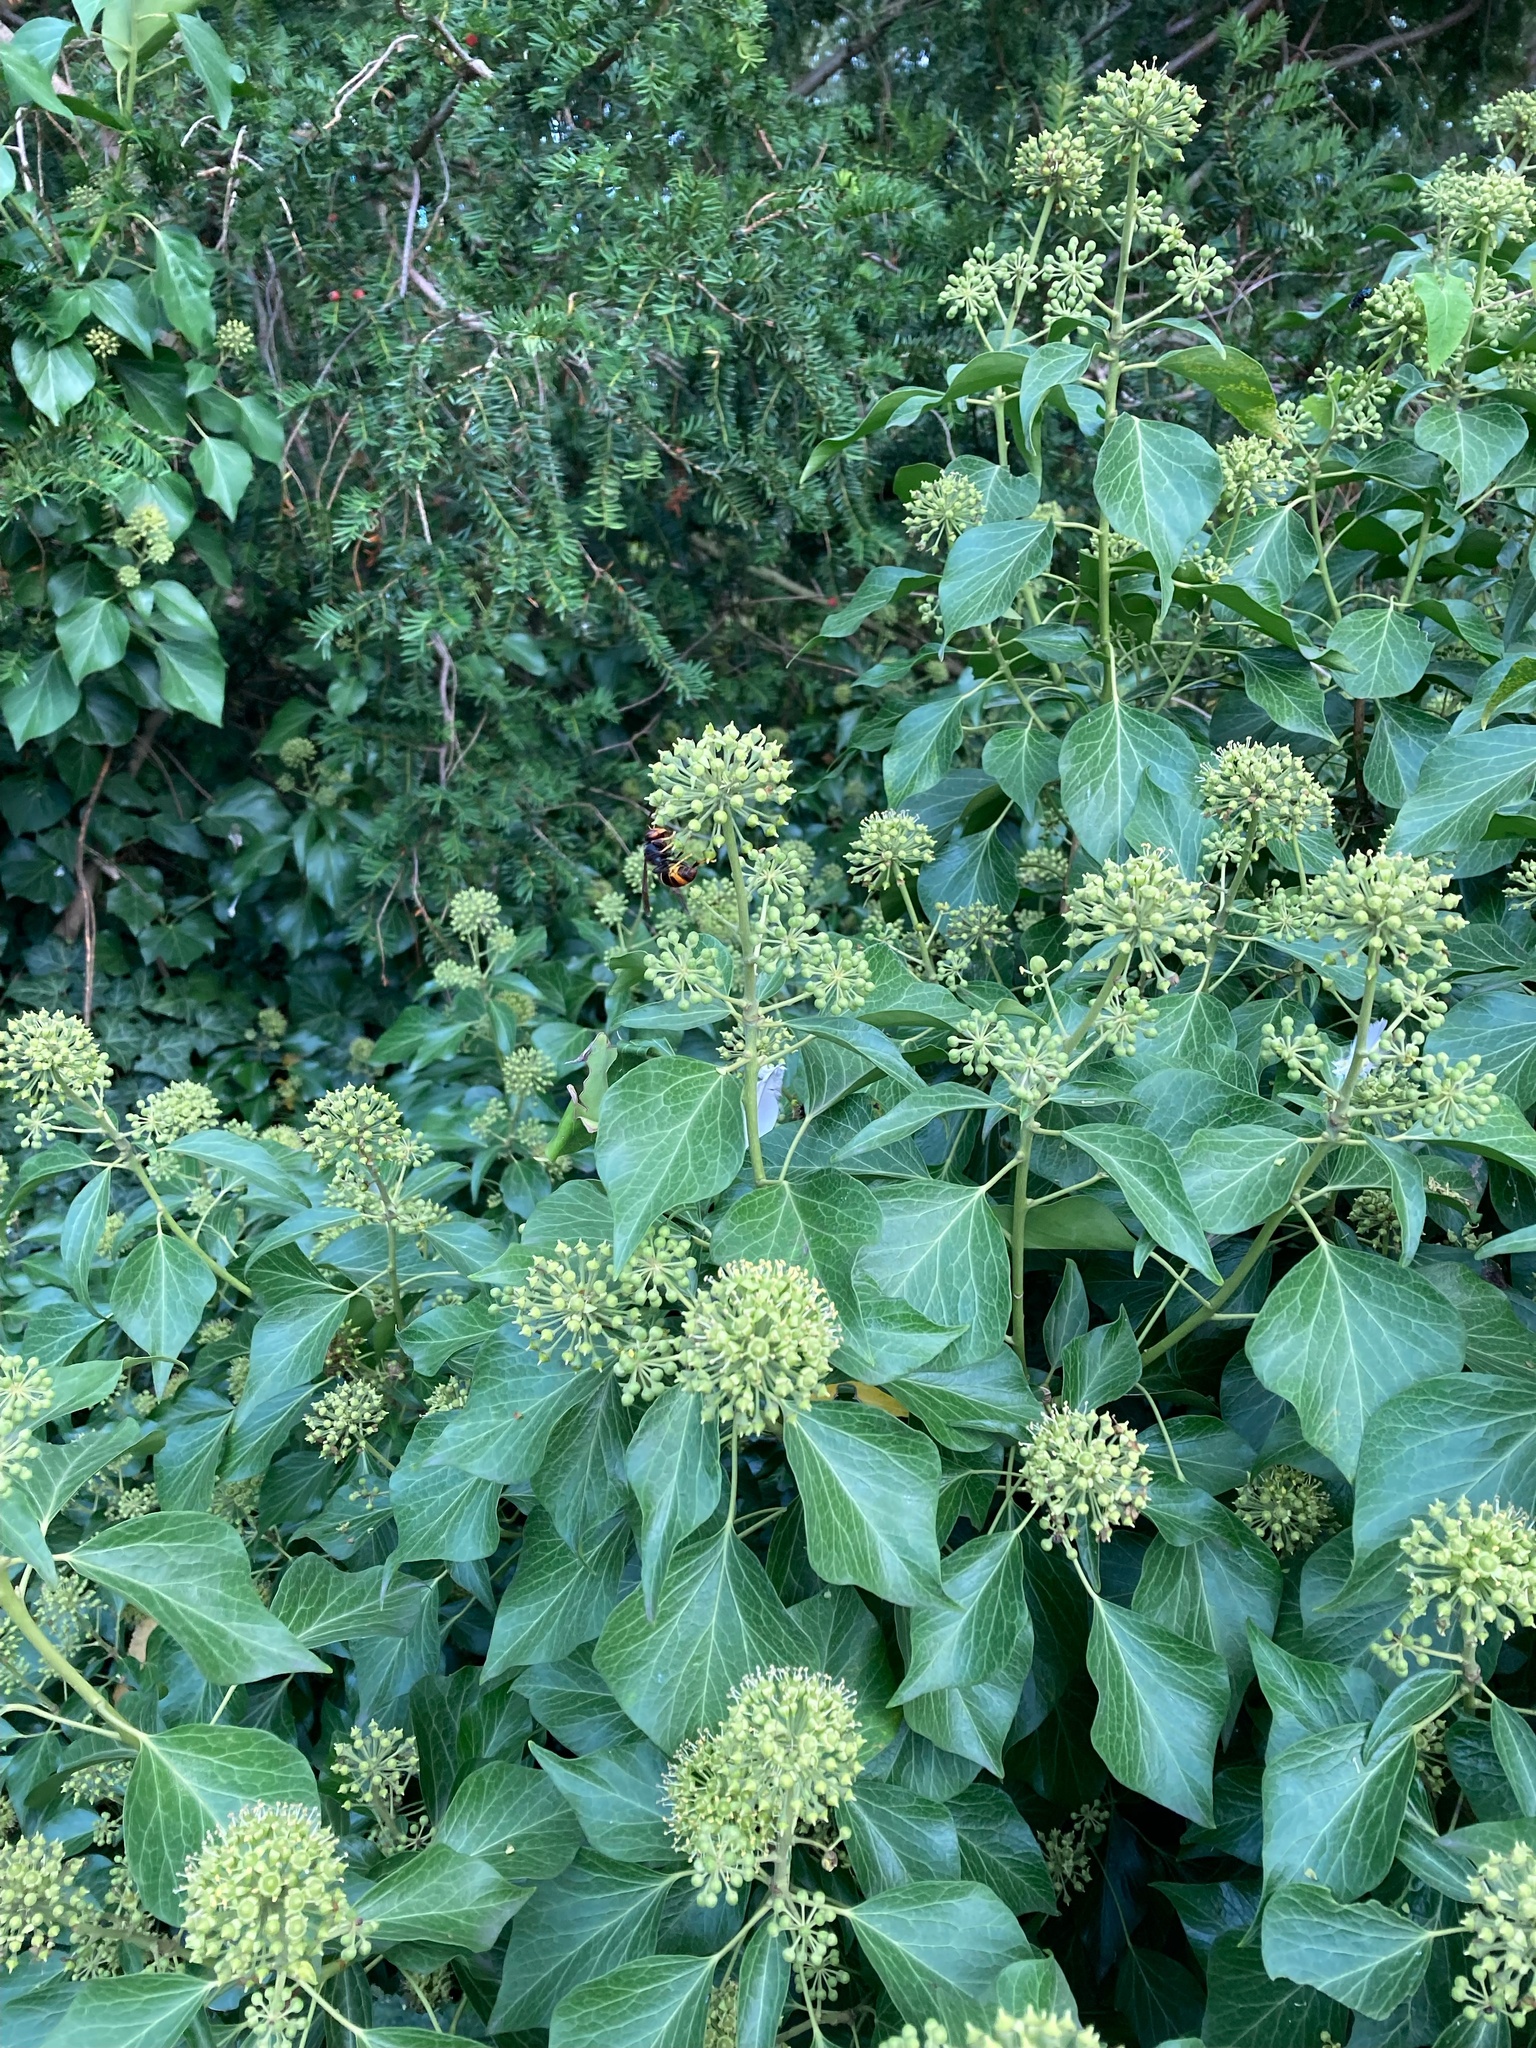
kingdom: Animalia
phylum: Arthropoda
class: Insecta
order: Hymenoptera
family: Vespidae
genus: Vespa
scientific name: Vespa velutina
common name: Asian hornet
